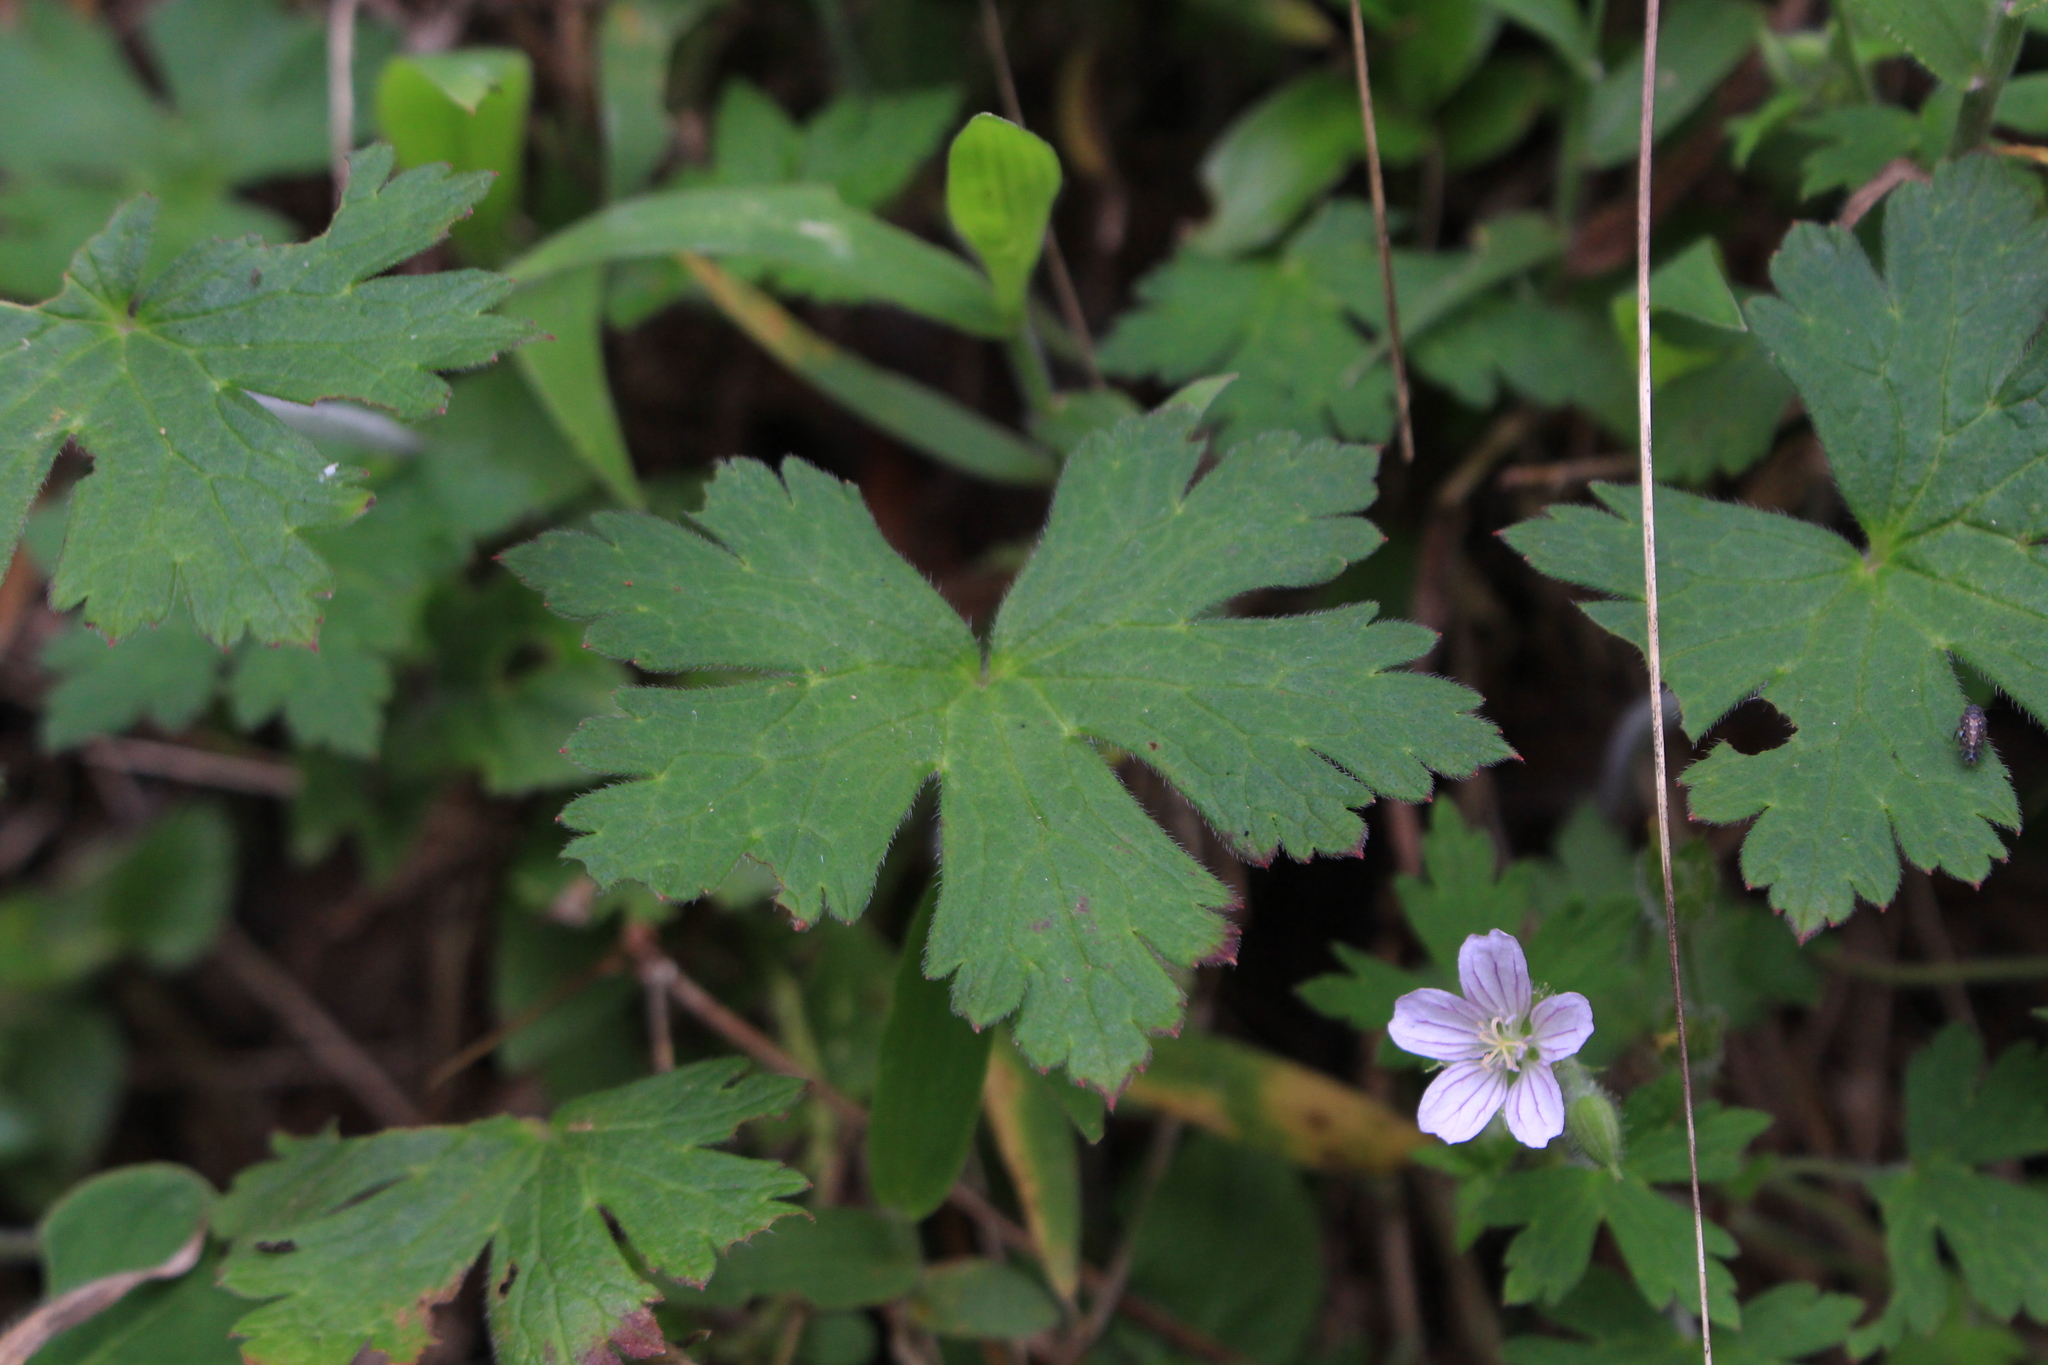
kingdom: Plantae
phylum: Tracheophyta
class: Magnoliopsida
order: Geraniales
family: Geraniaceae
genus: Geranium
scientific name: Geranium seemannii
